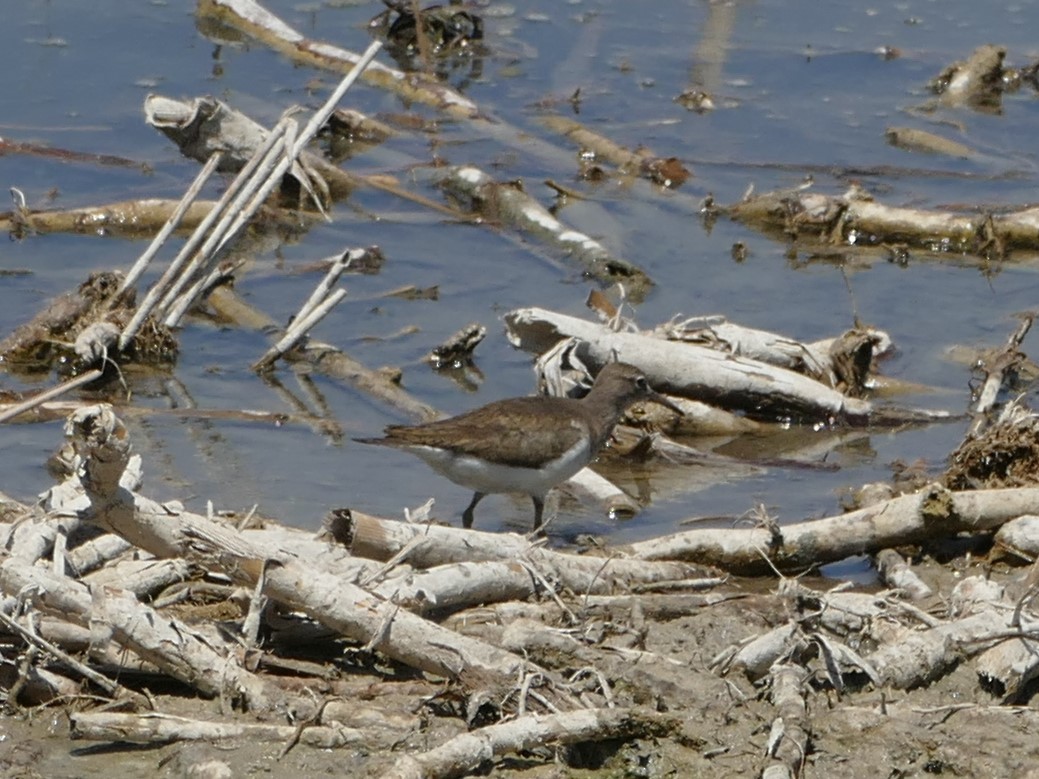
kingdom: Animalia
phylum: Chordata
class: Aves
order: Charadriiformes
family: Scolopacidae
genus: Actitis
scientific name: Actitis hypoleucos
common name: Common sandpiper
